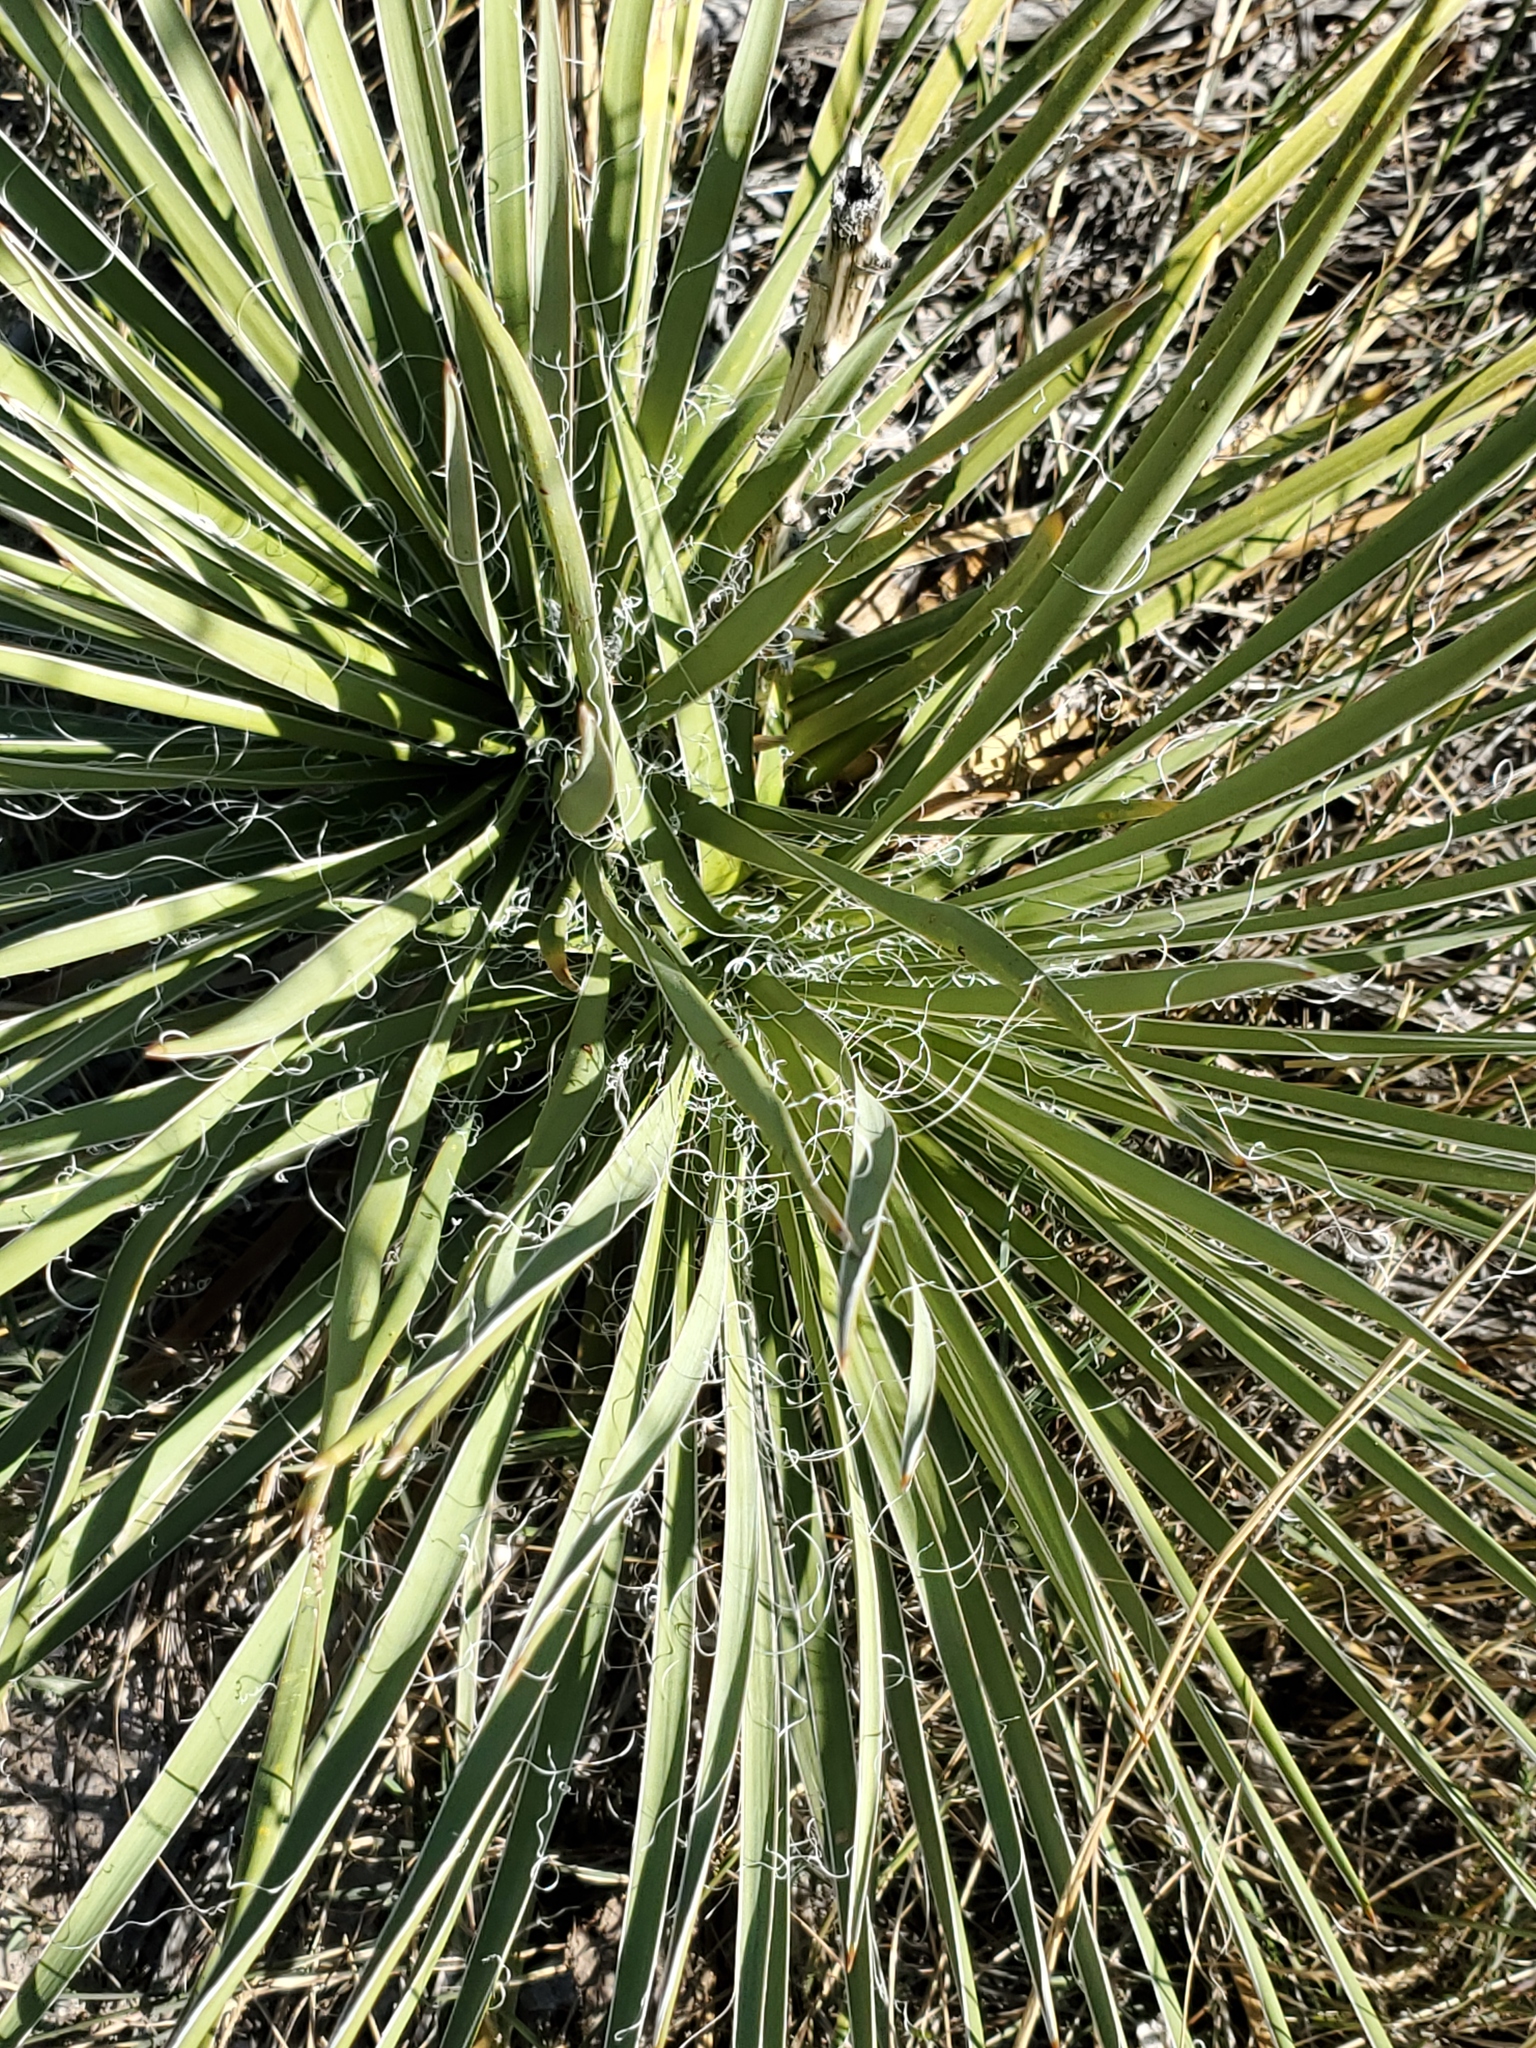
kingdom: Plantae
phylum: Tracheophyta
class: Liliopsida
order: Asparagales
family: Asparagaceae
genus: Yucca
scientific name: Yucca glauca
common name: Great plains yucca
